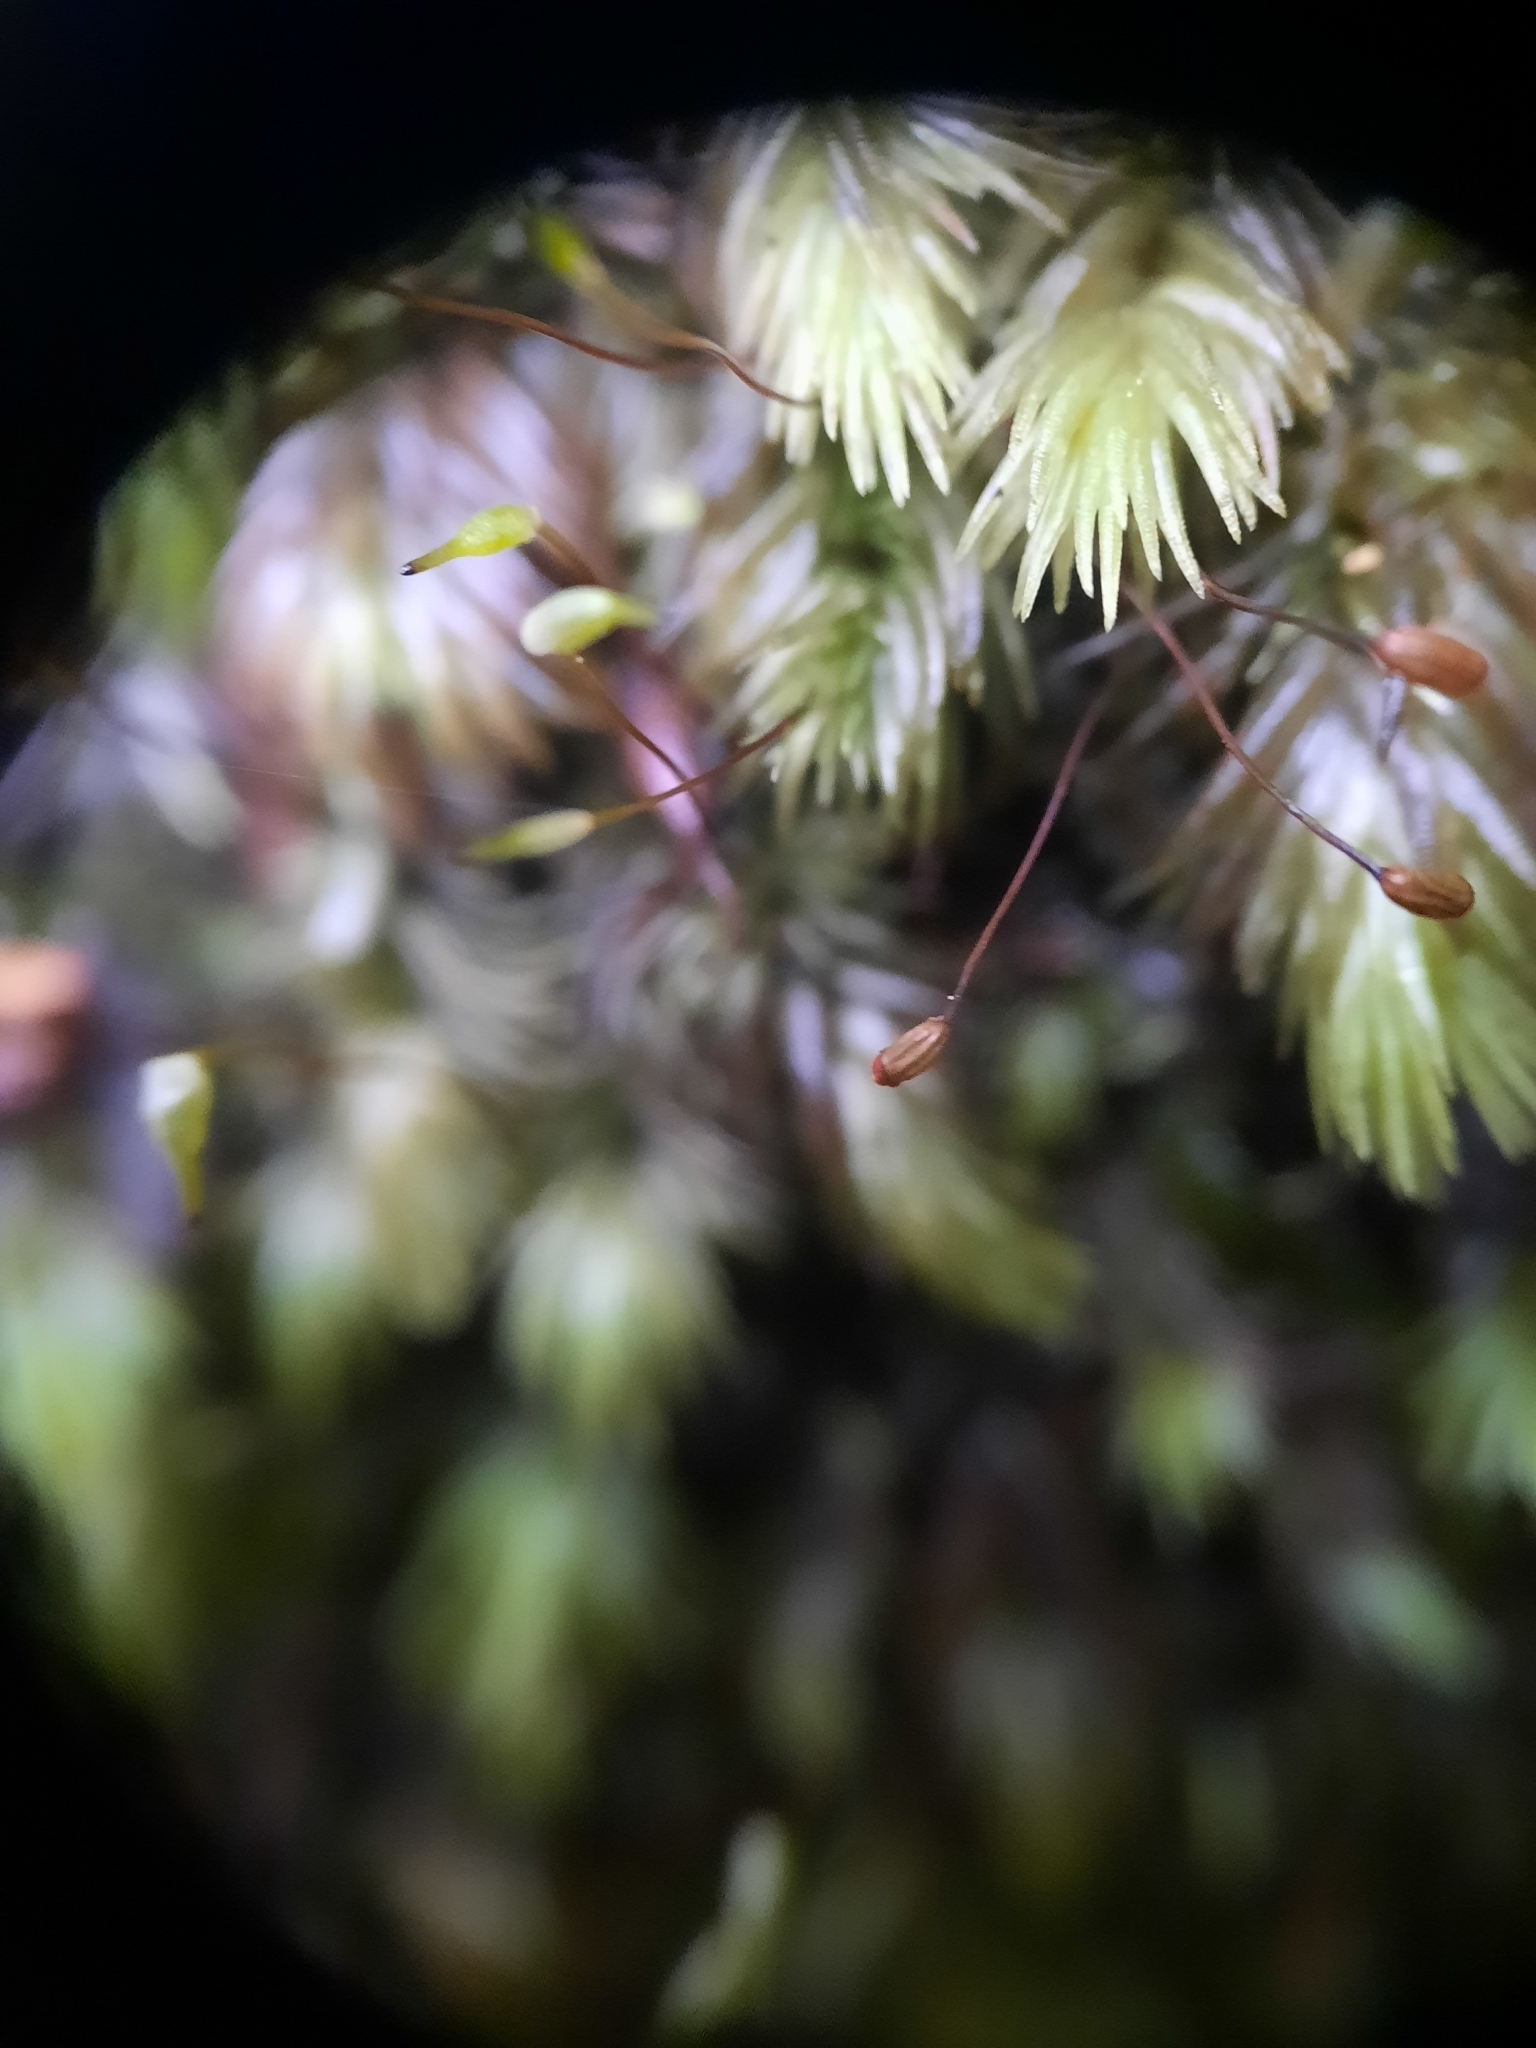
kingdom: Plantae
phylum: Bryophyta
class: Bryopsida
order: Dicranales
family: Leucobryaceae
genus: Leucobryum
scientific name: Leucobryum javense
